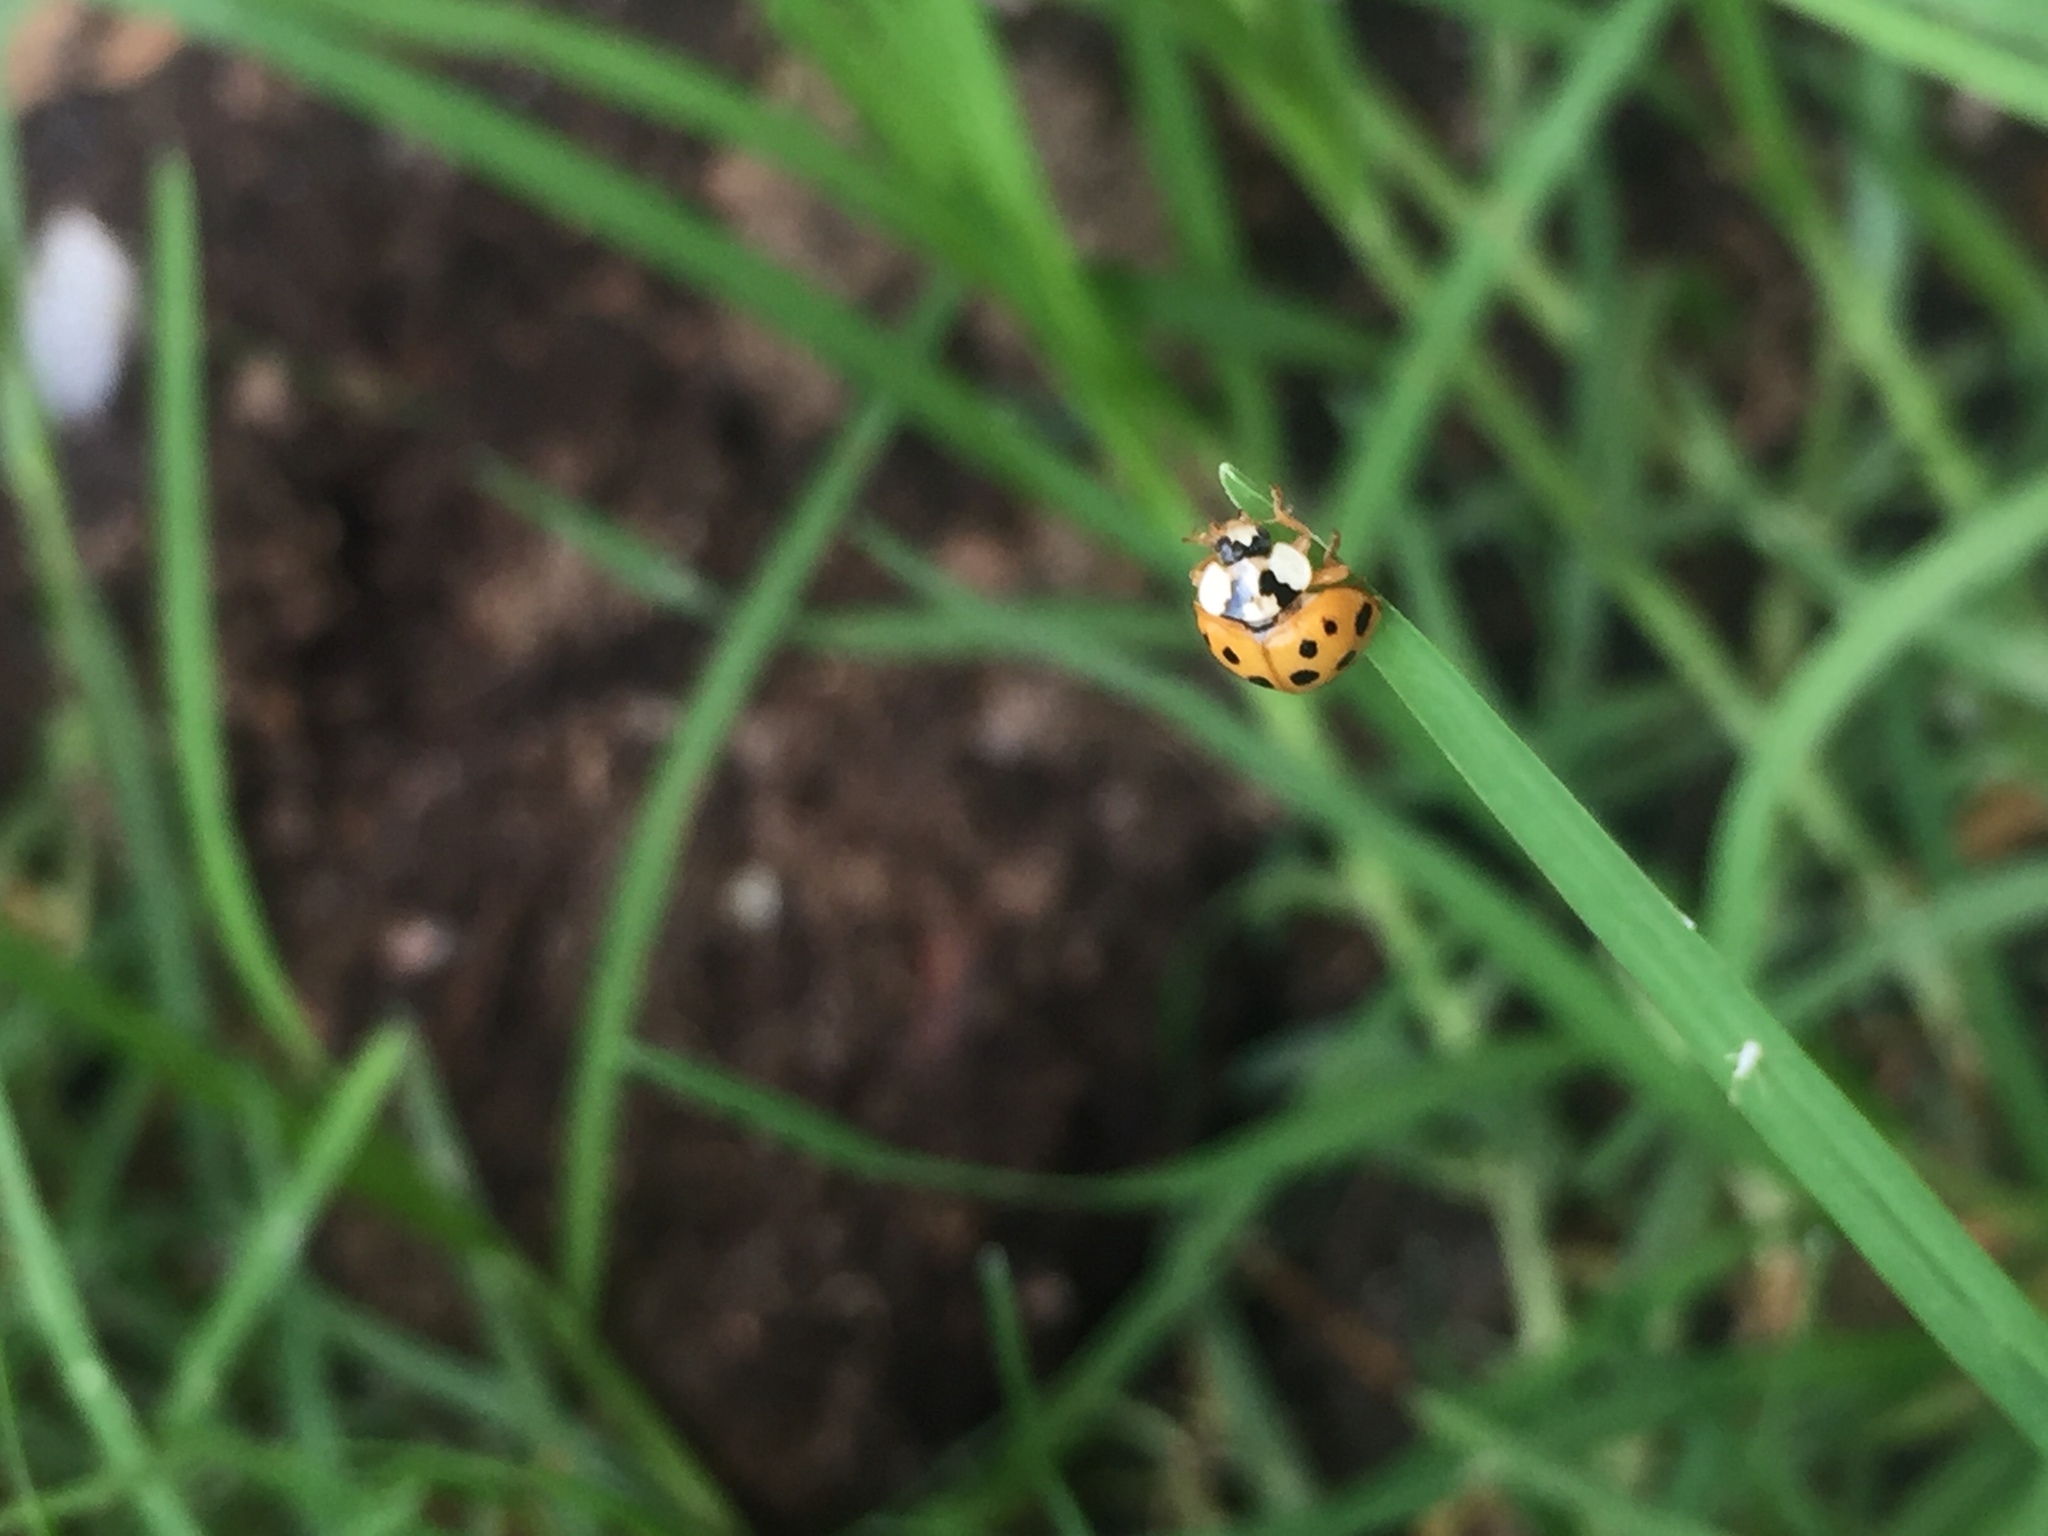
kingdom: Animalia
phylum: Arthropoda
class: Insecta
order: Coleoptera
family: Coccinellidae
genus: Harmonia
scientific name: Harmonia axyridis
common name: Harlequin ladybird
